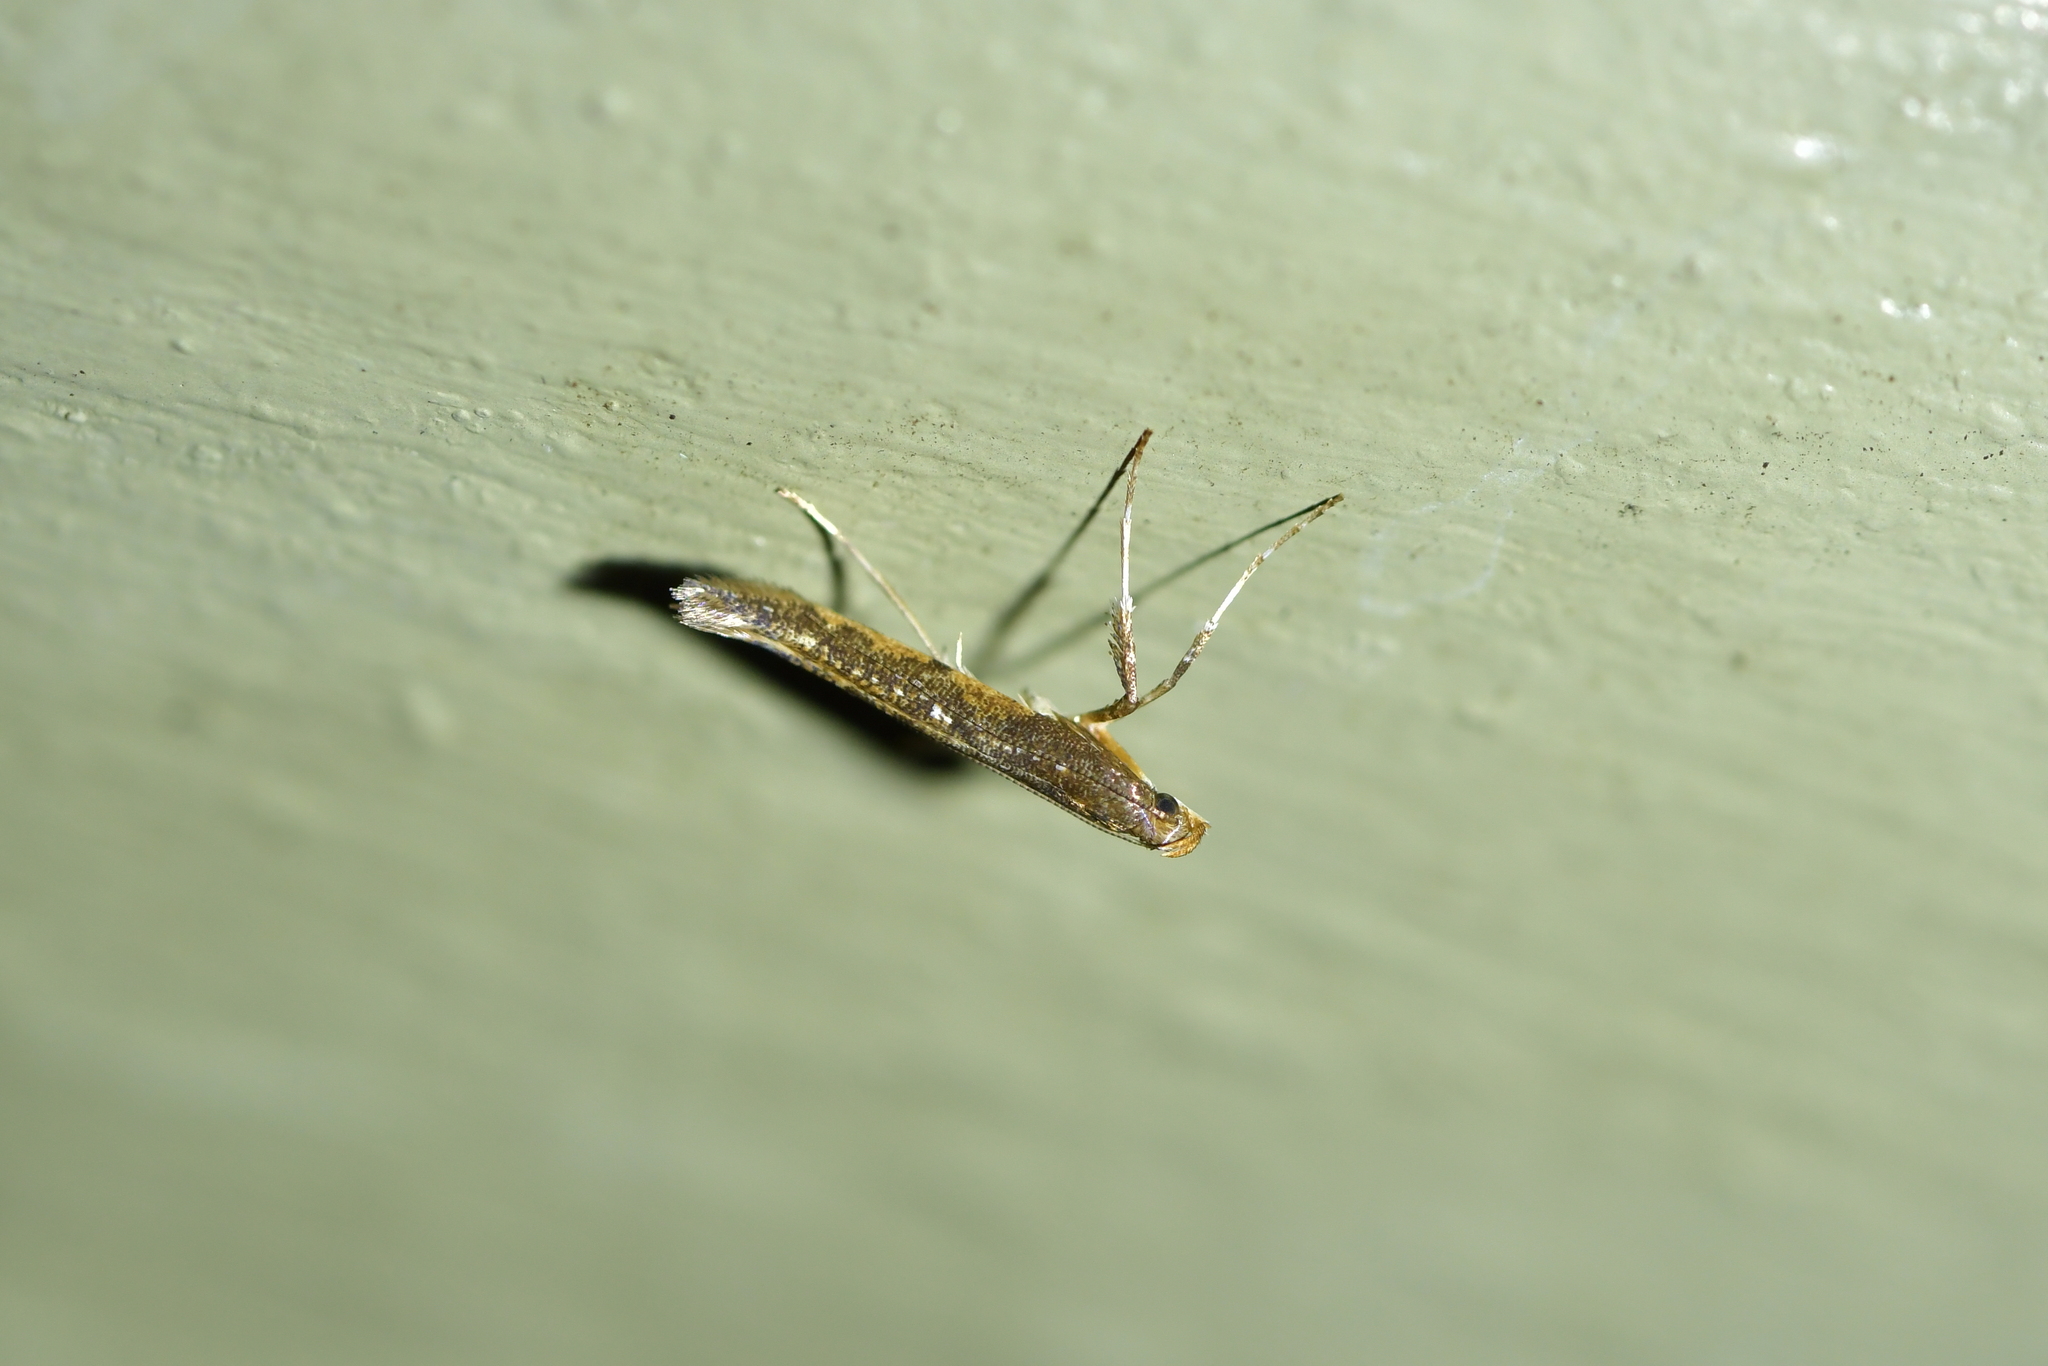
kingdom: Animalia
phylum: Arthropoda
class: Insecta
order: Lepidoptera
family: Gracillariidae
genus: Caloptilia
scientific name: Caloptilia linearis
